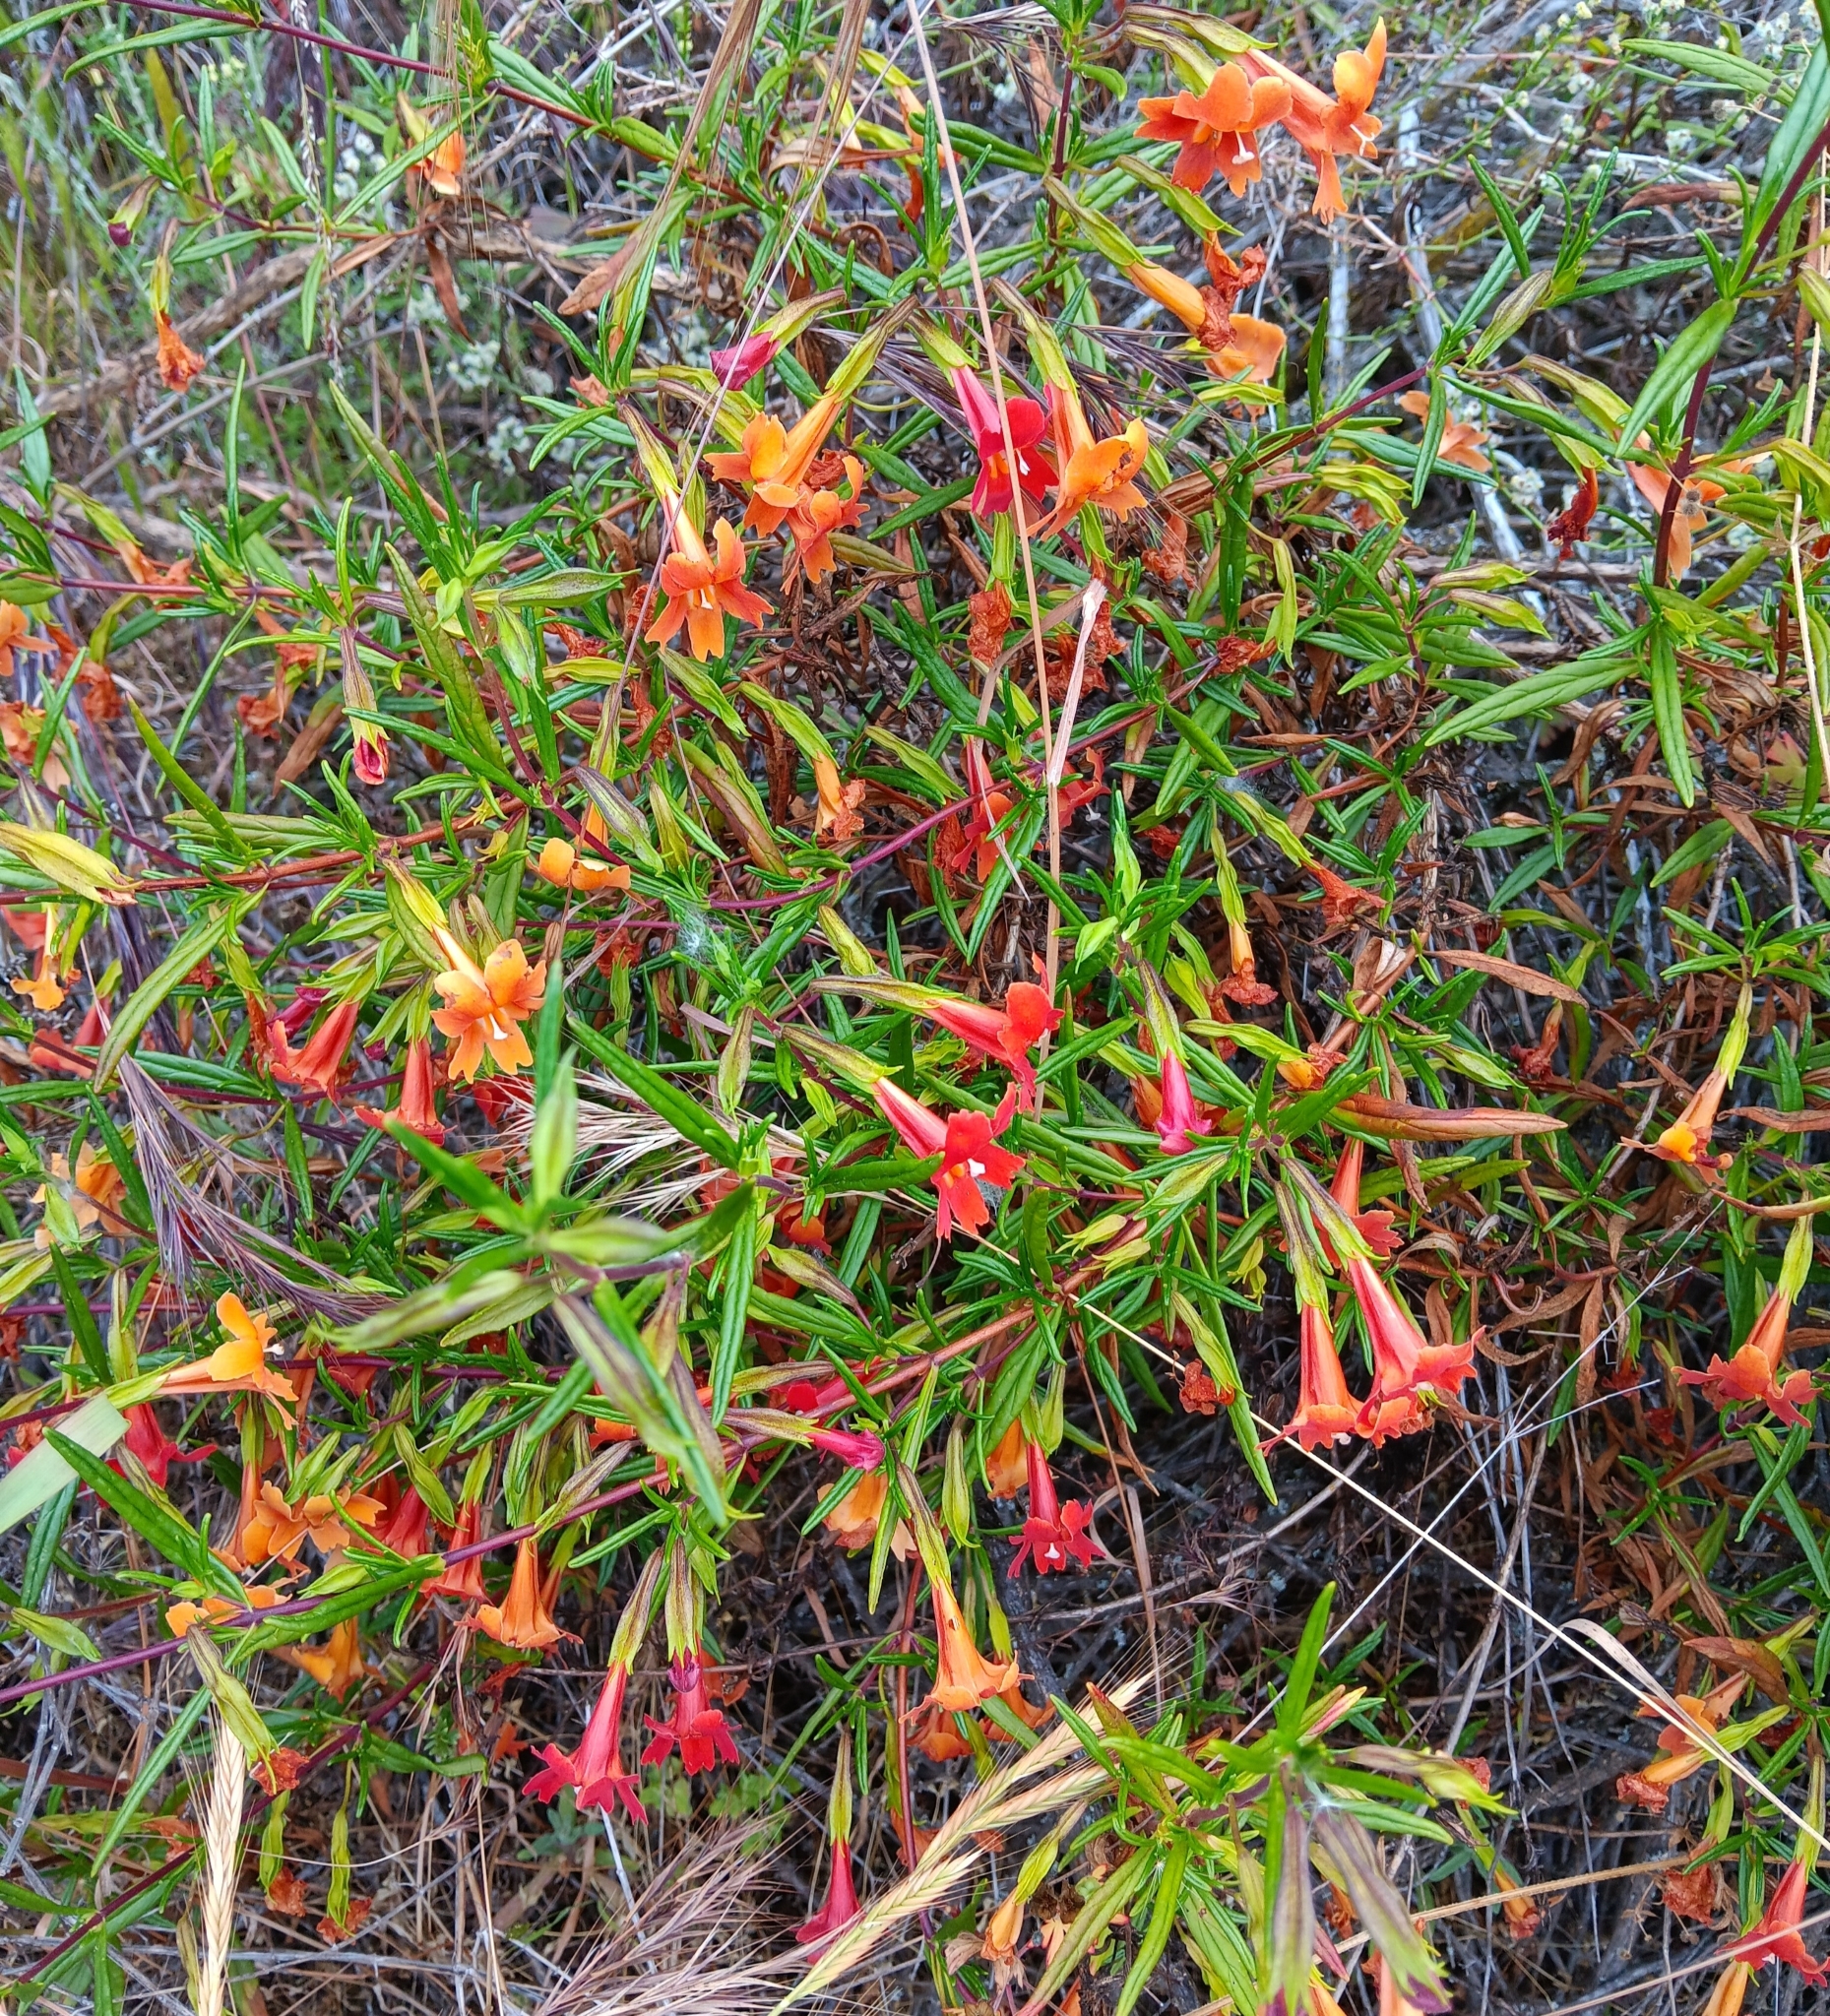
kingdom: Plantae
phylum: Tracheophyta
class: Magnoliopsida
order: Lamiales
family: Phrymaceae
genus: Diplacus
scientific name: Diplacus australis
